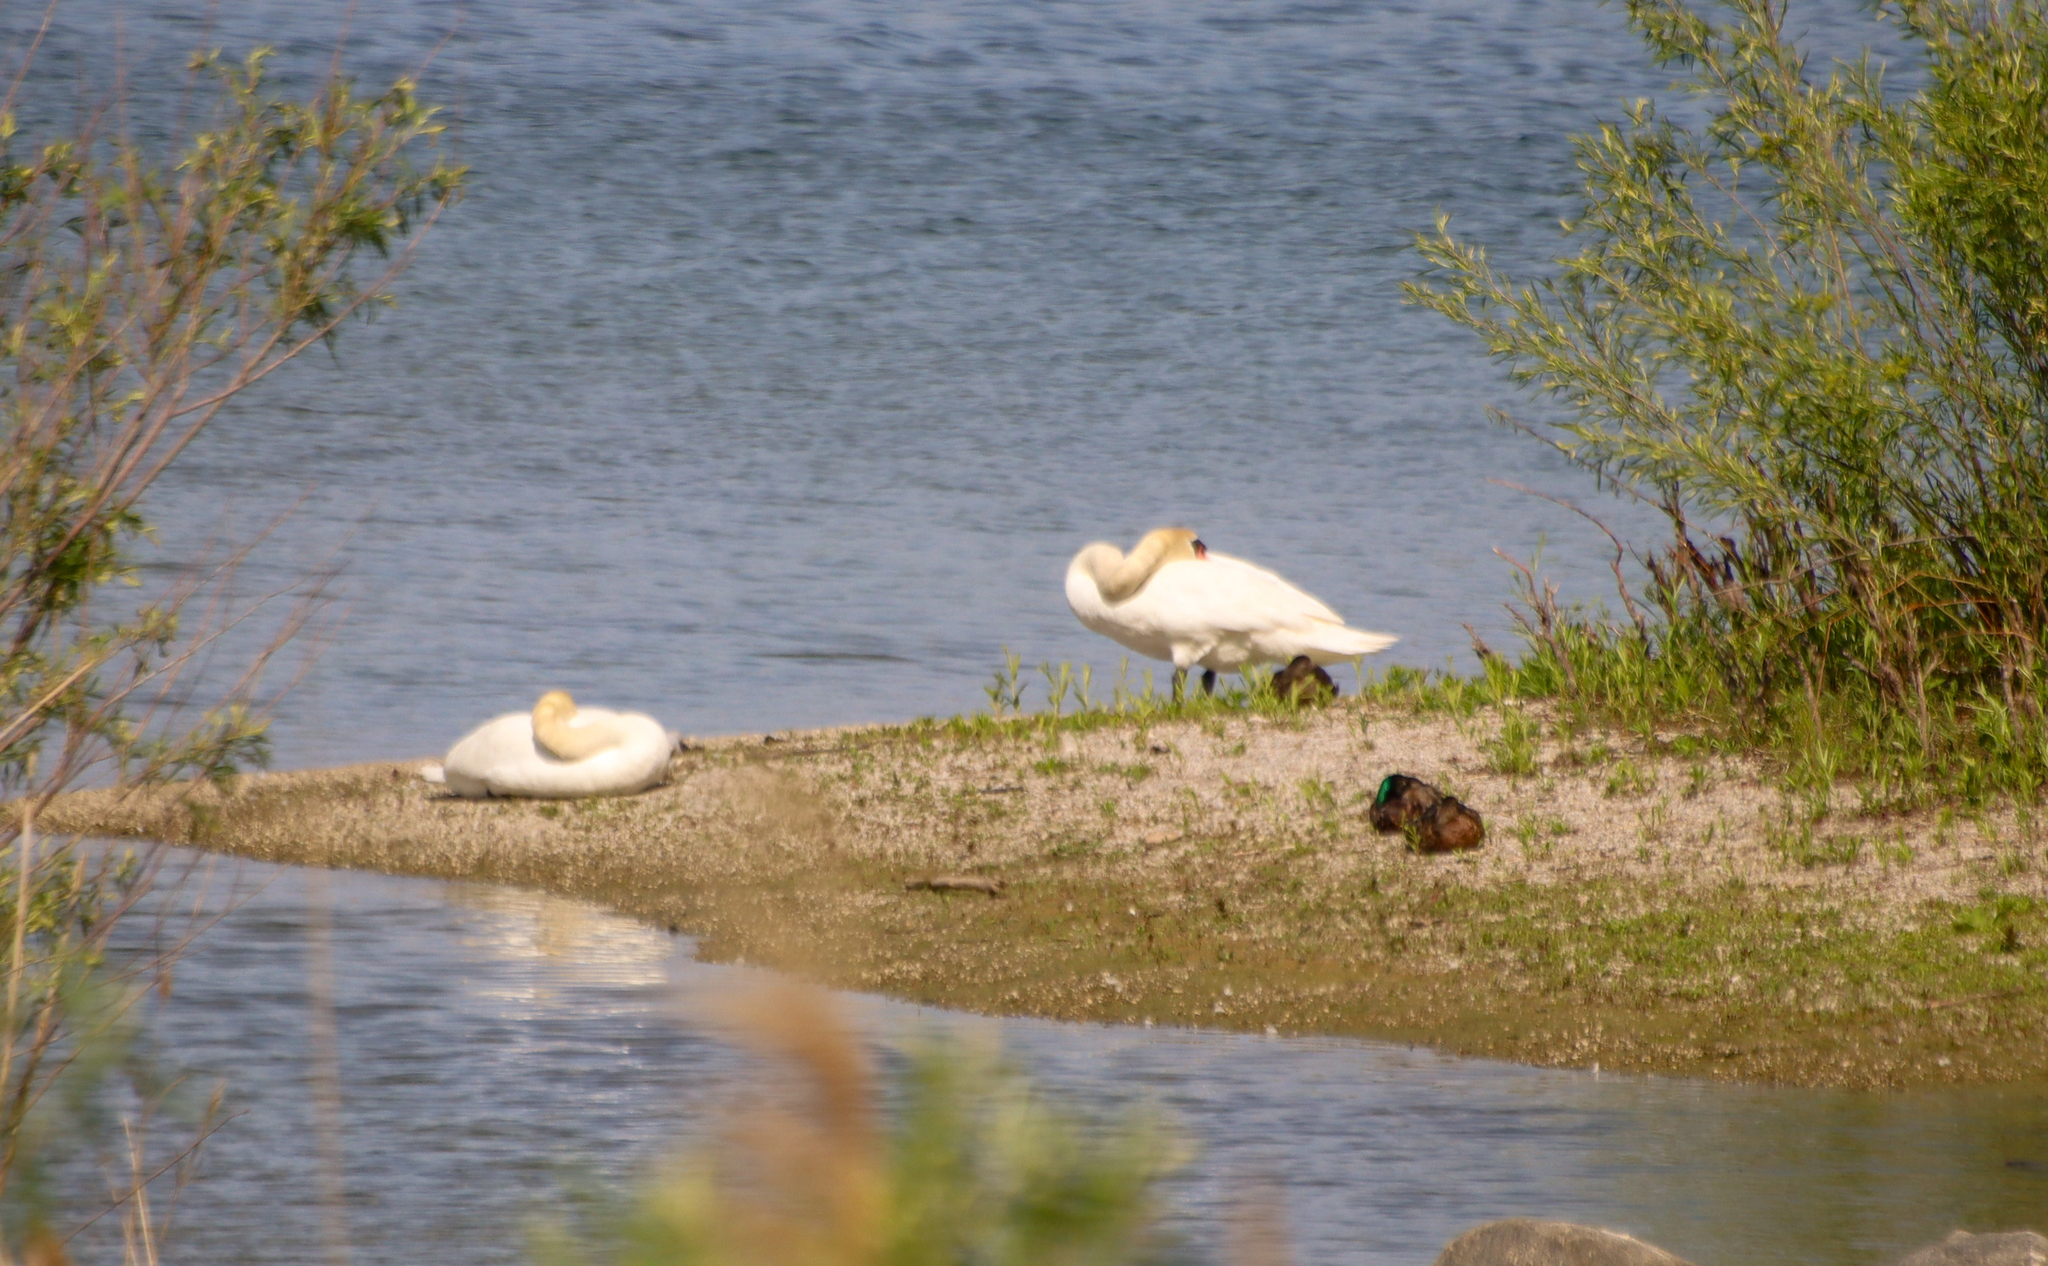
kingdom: Animalia
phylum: Chordata
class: Aves
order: Anseriformes
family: Anatidae
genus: Cygnus
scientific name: Cygnus olor
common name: Mute swan
